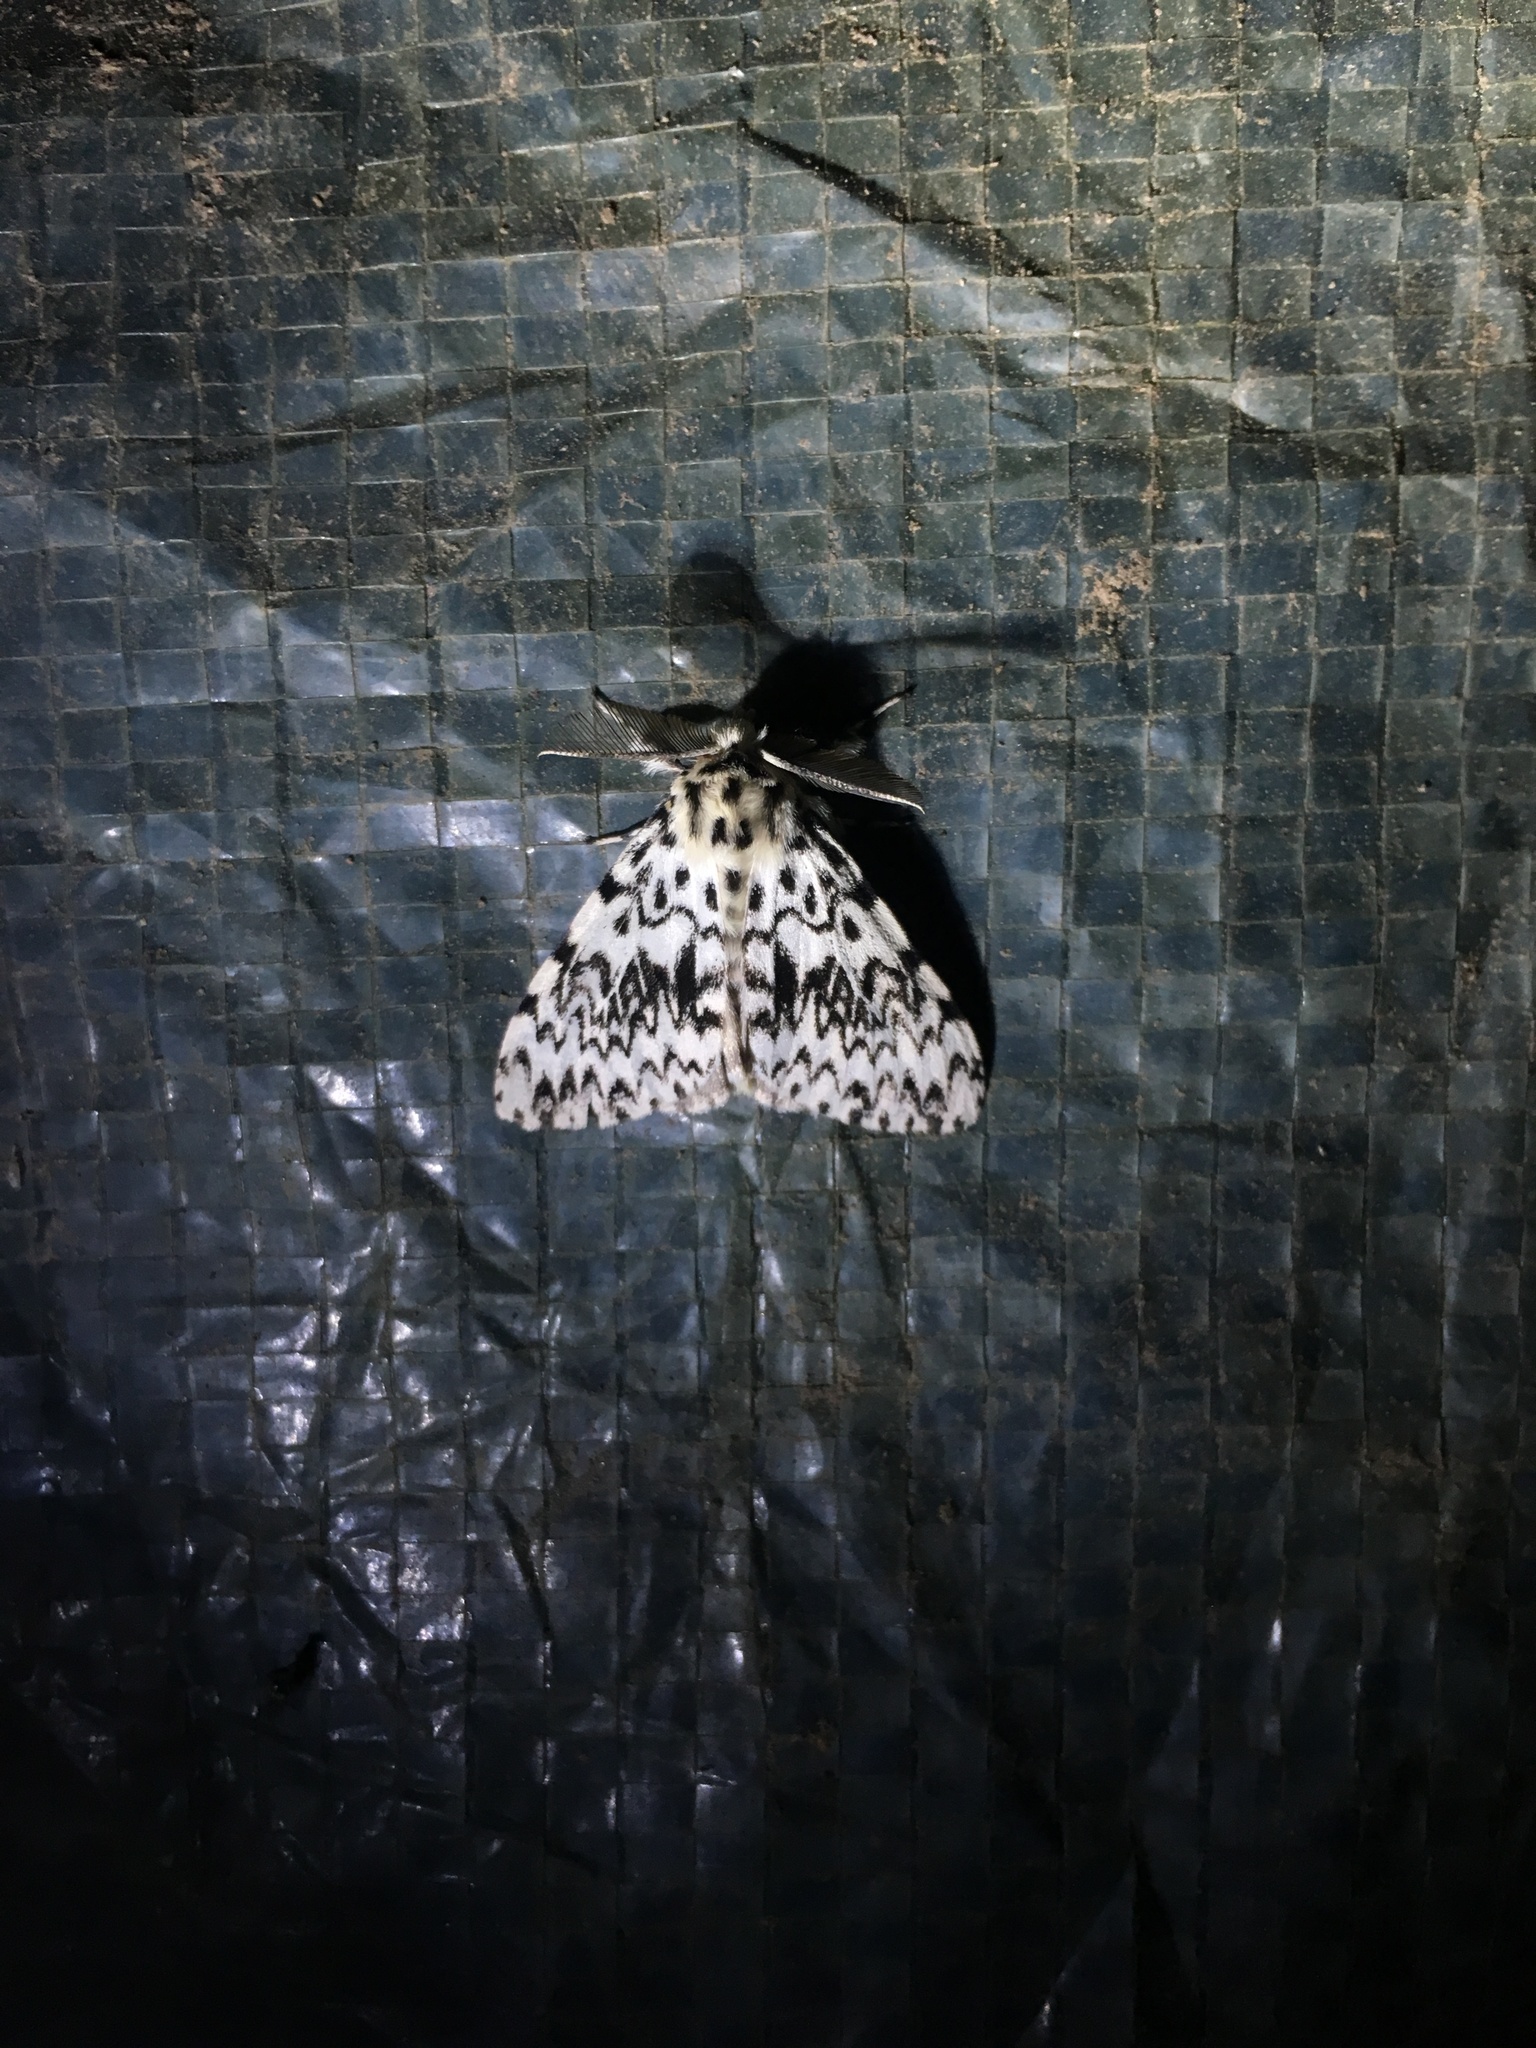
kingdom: Animalia
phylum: Arthropoda
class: Insecta
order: Lepidoptera
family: Erebidae
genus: Lymantria
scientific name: Lymantria monacha
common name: Black arches
